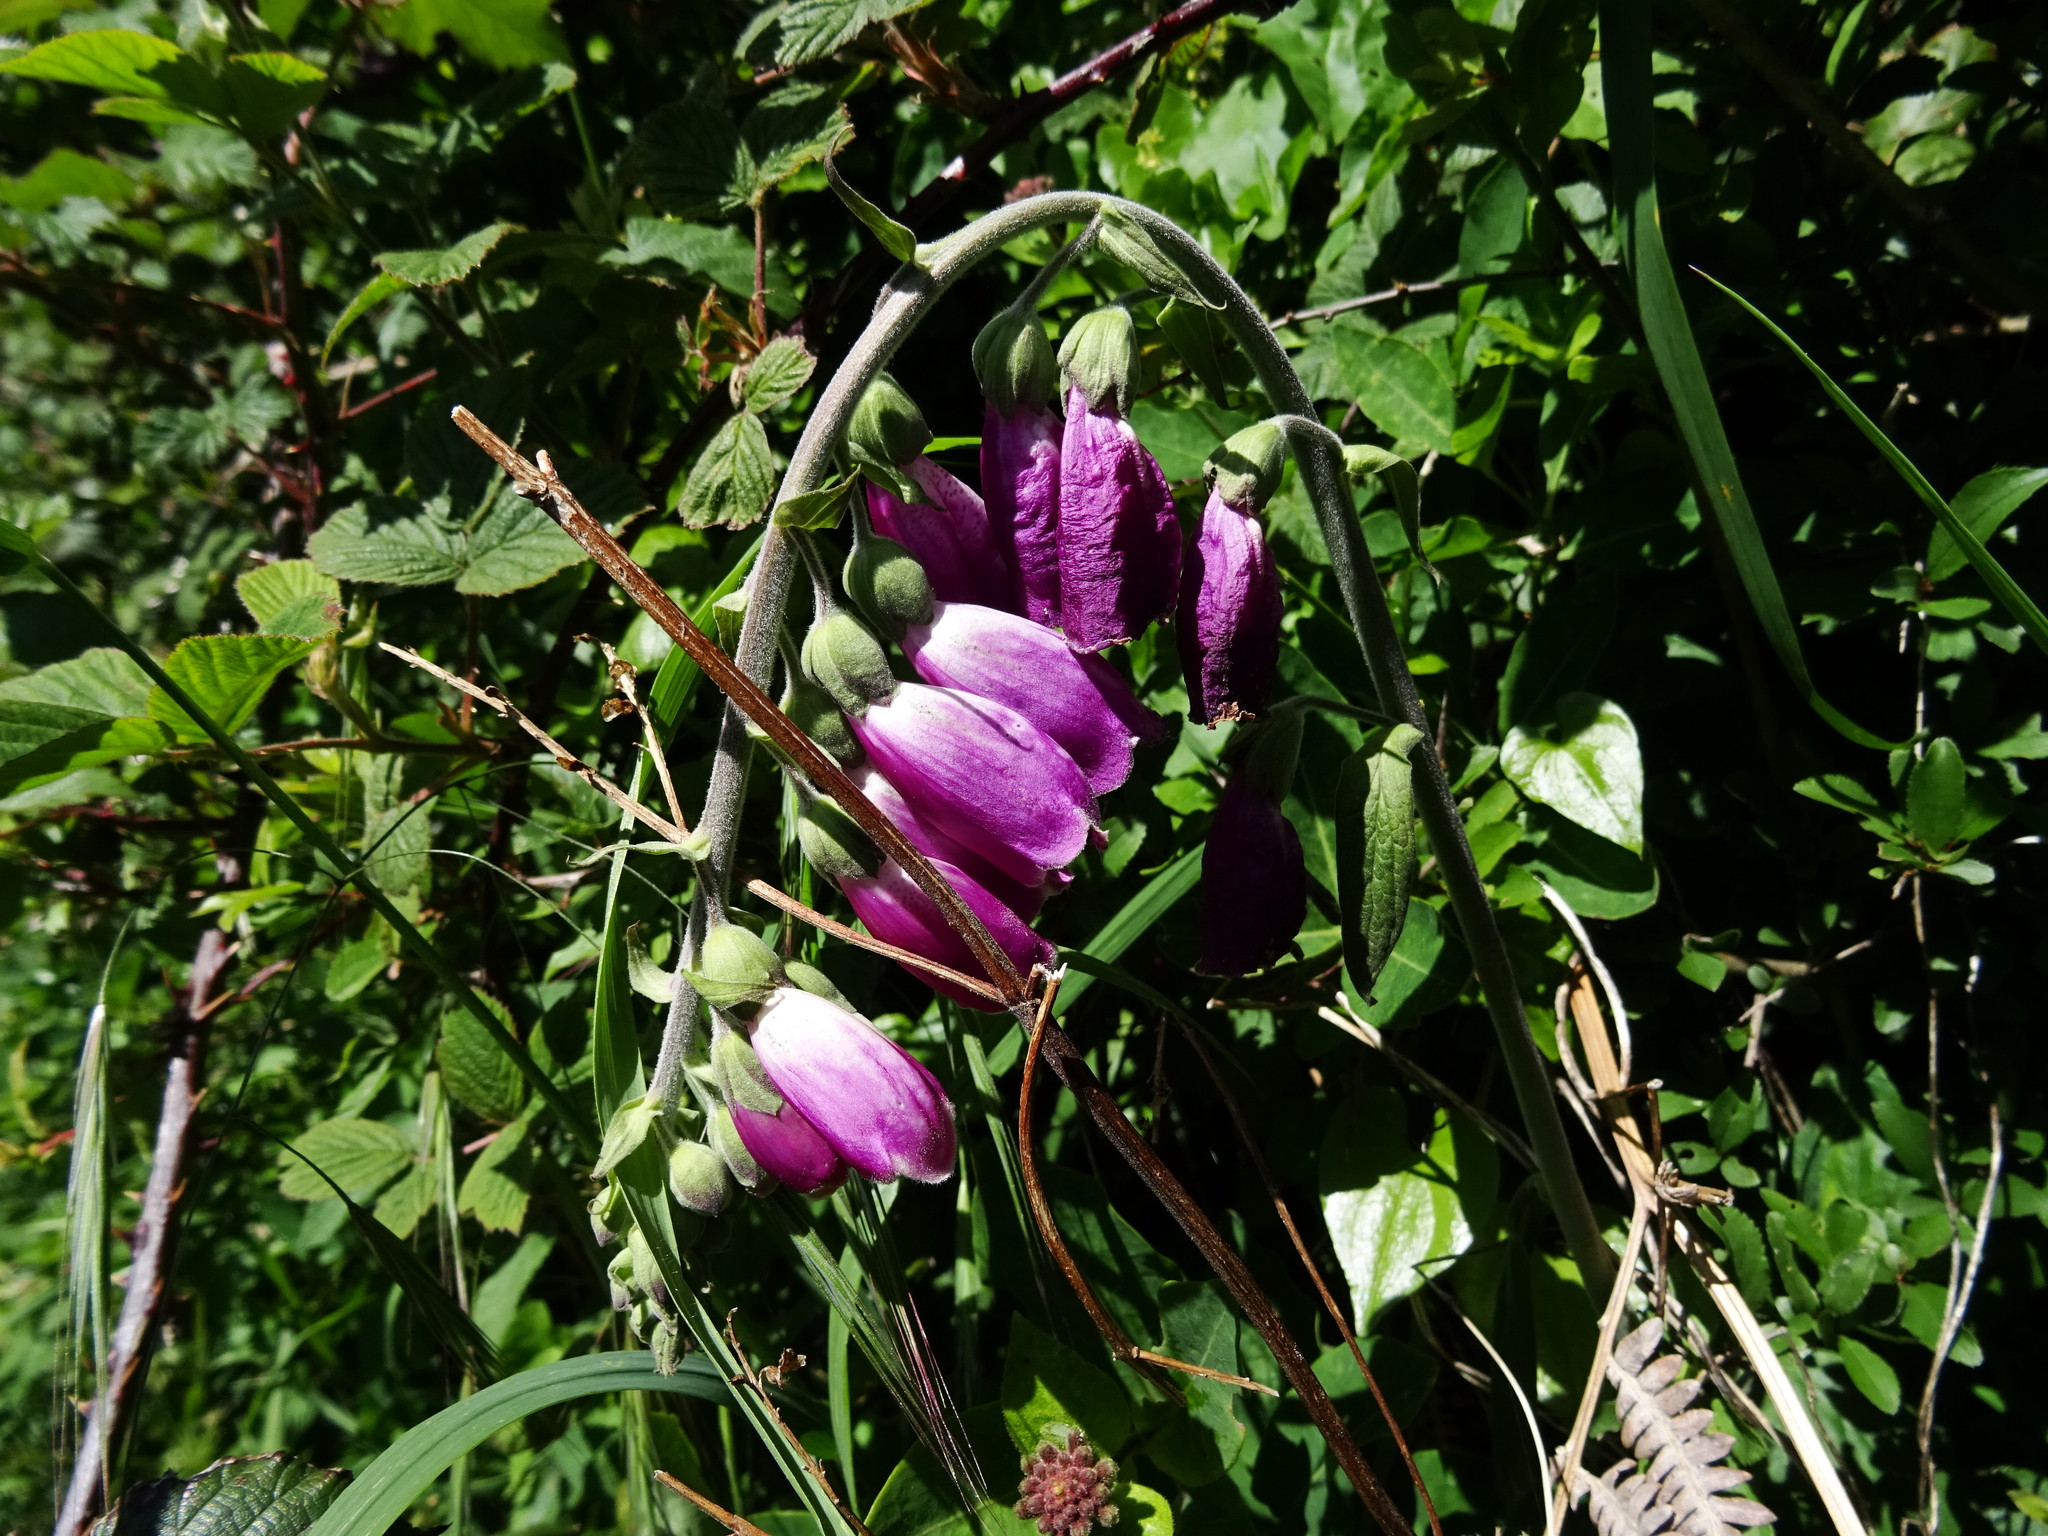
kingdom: Plantae
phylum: Tracheophyta
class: Magnoliopsida
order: Lamiales
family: Plantaginaceae
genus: Digitalis
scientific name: Digitalis purpurea
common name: Foxglove
